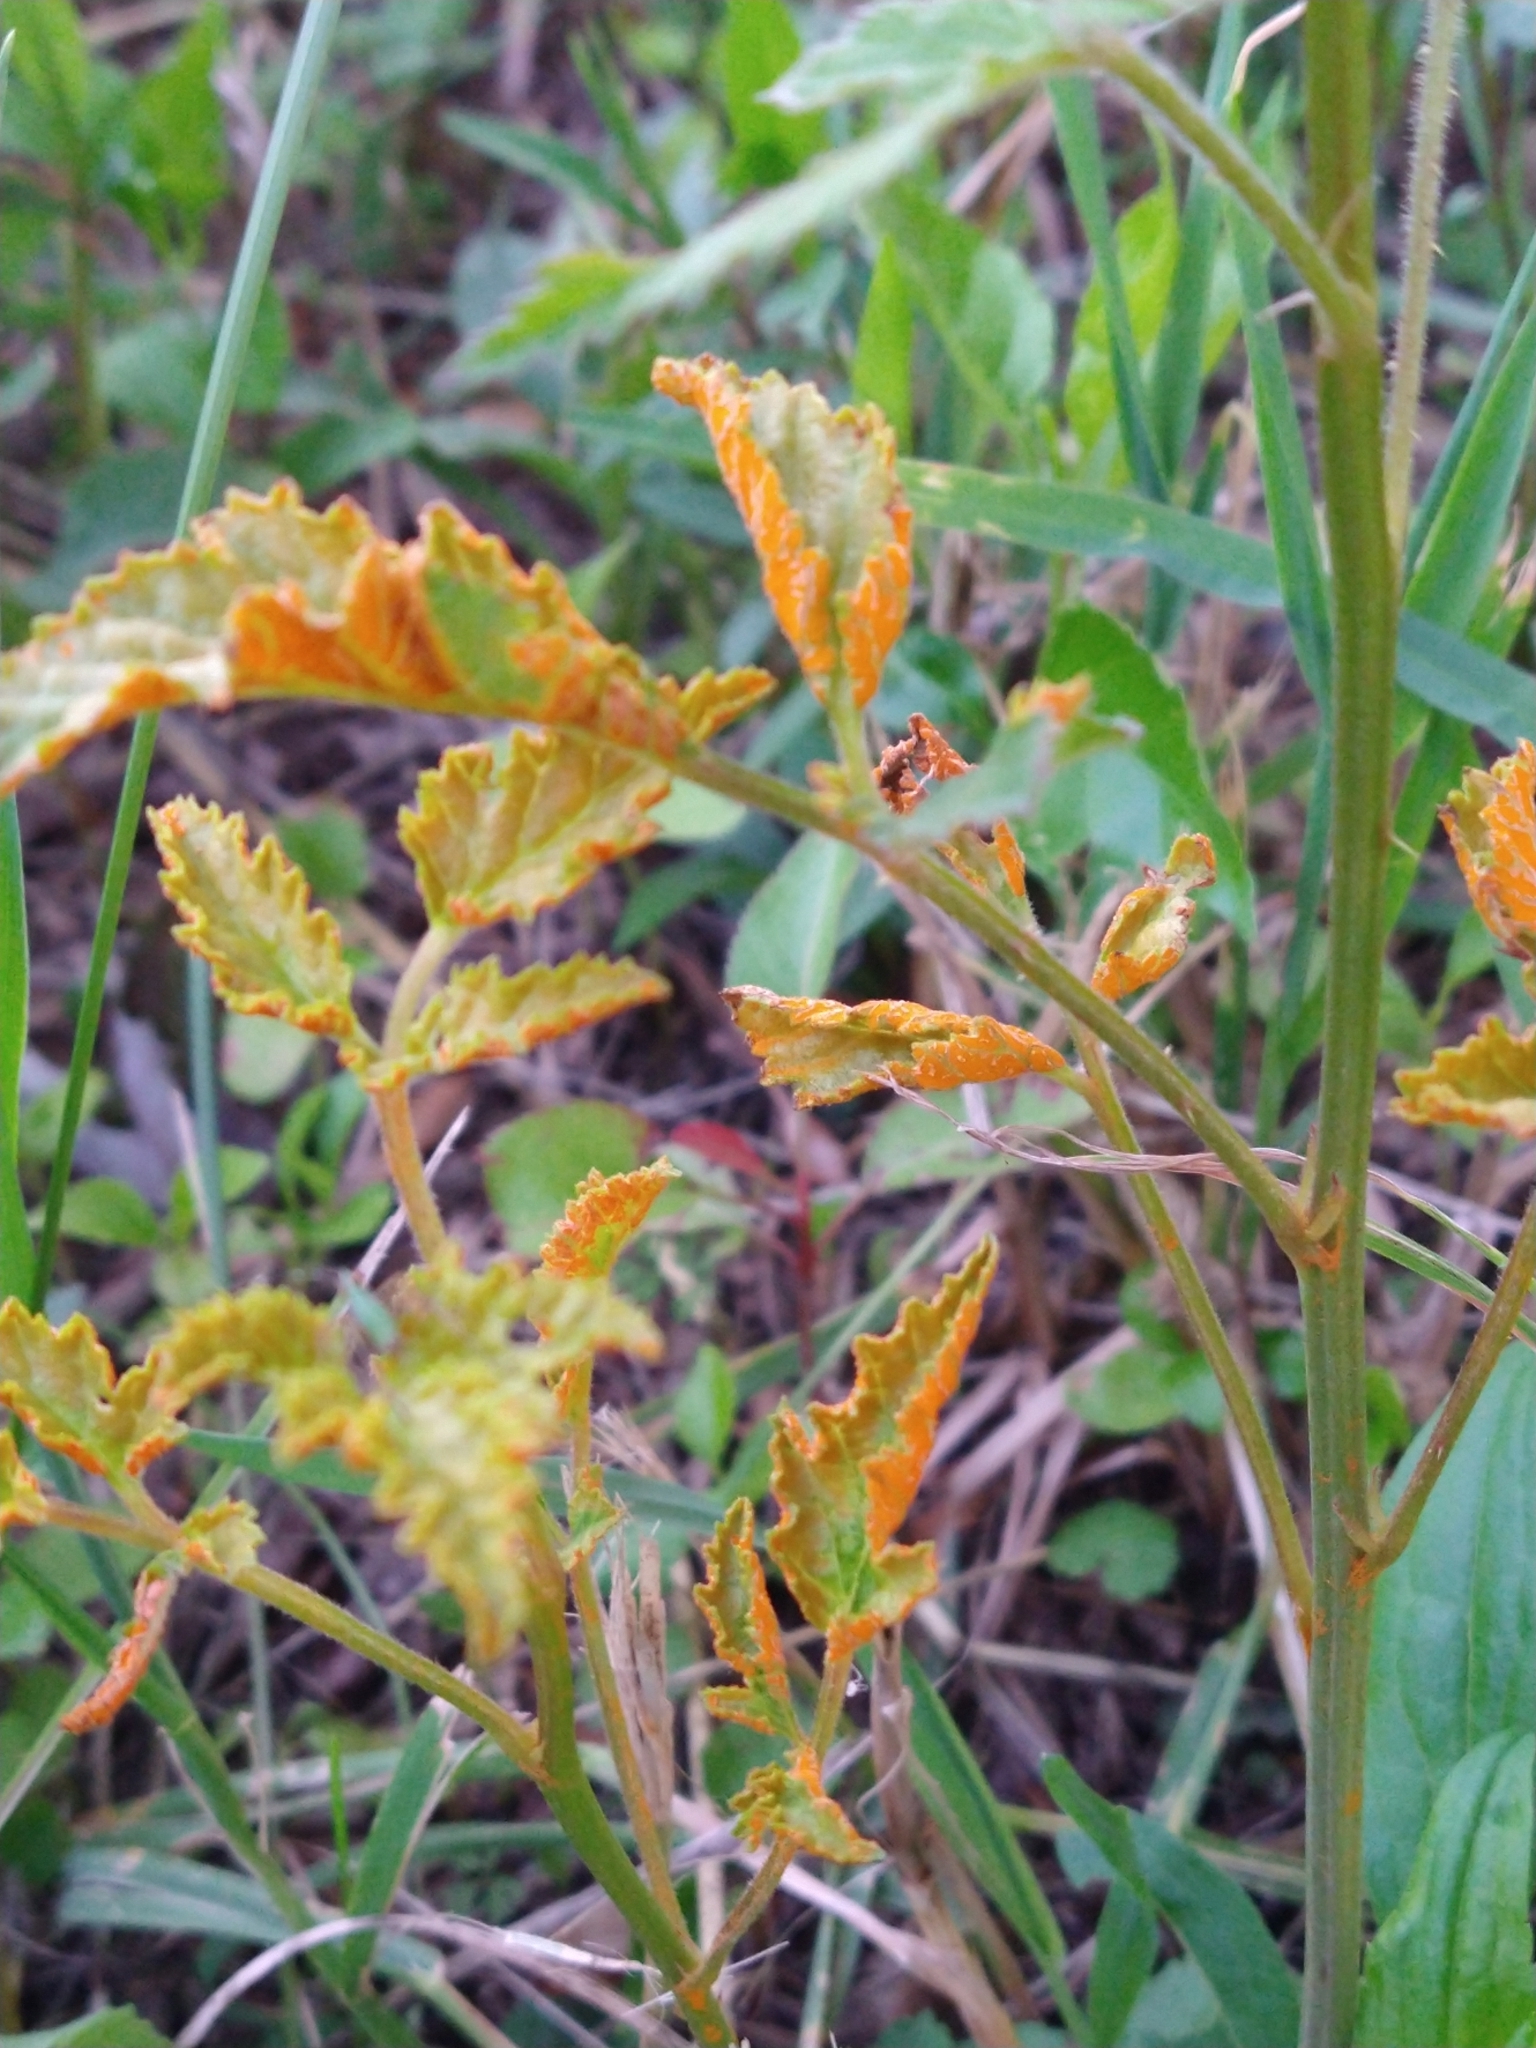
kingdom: Fungi
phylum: Basidiomycota
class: Pucciniomycetes
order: Pucciniales
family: Phragmidiaceae
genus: Arthuriomyces
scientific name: Arthuriomyces peckianus
